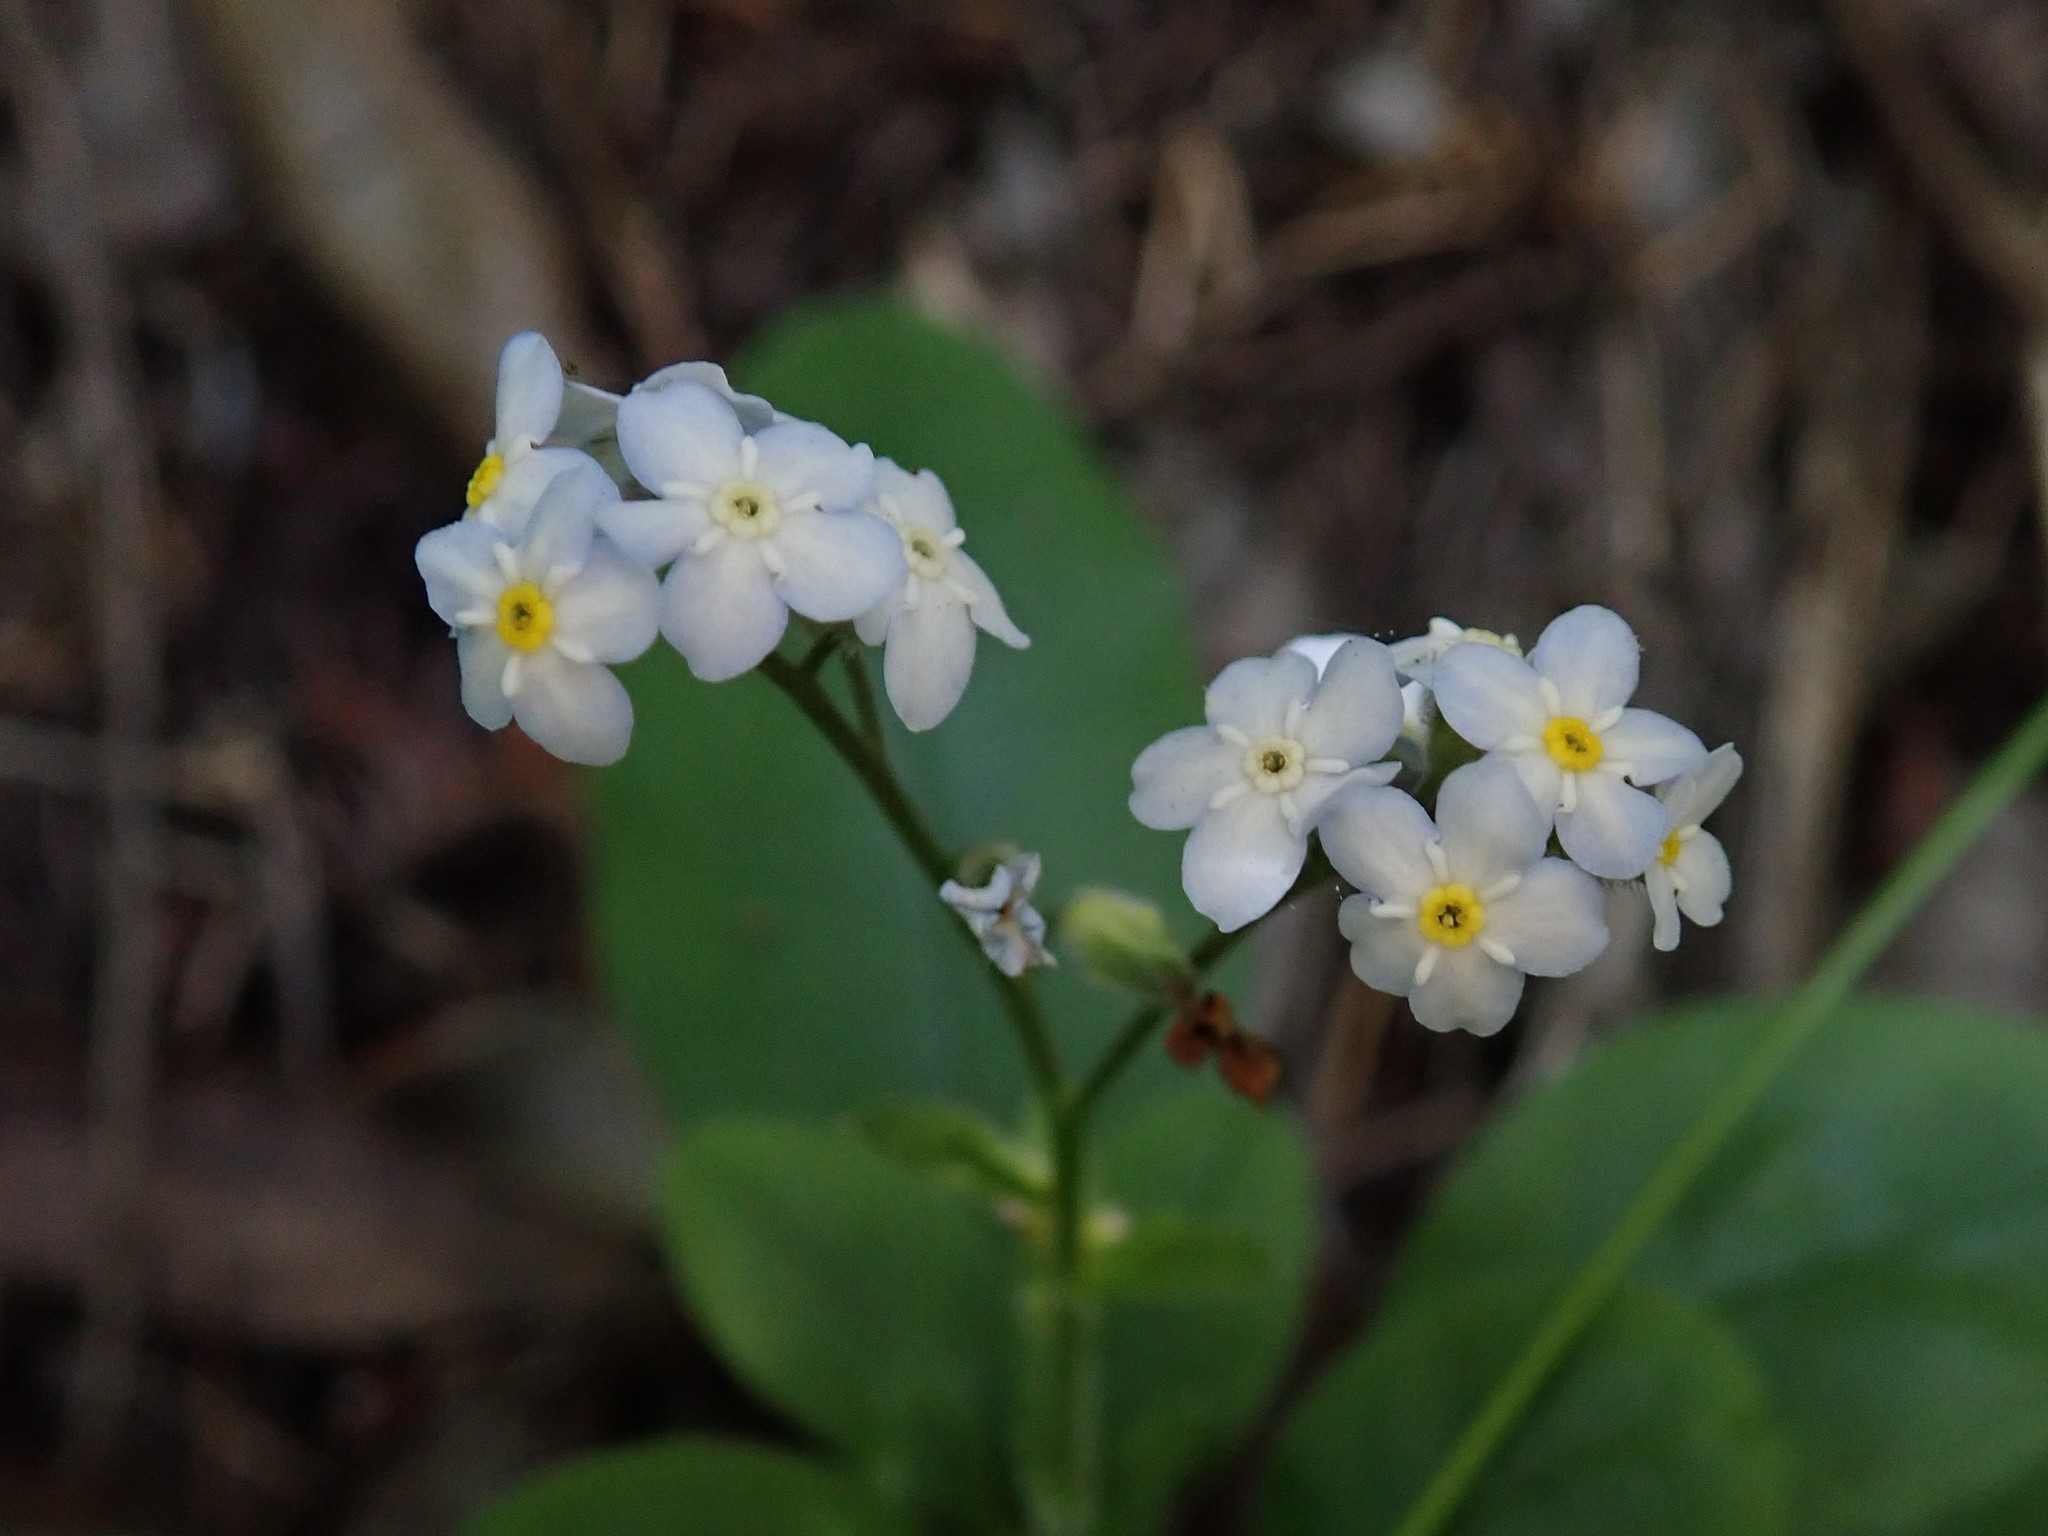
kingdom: Plantae
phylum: Tracheophyta
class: Magnoliopsida
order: Boraginales
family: Boraginaceae
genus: Myosotis
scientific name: Myosotis latifolia
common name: Broadleaf forget-me-not
